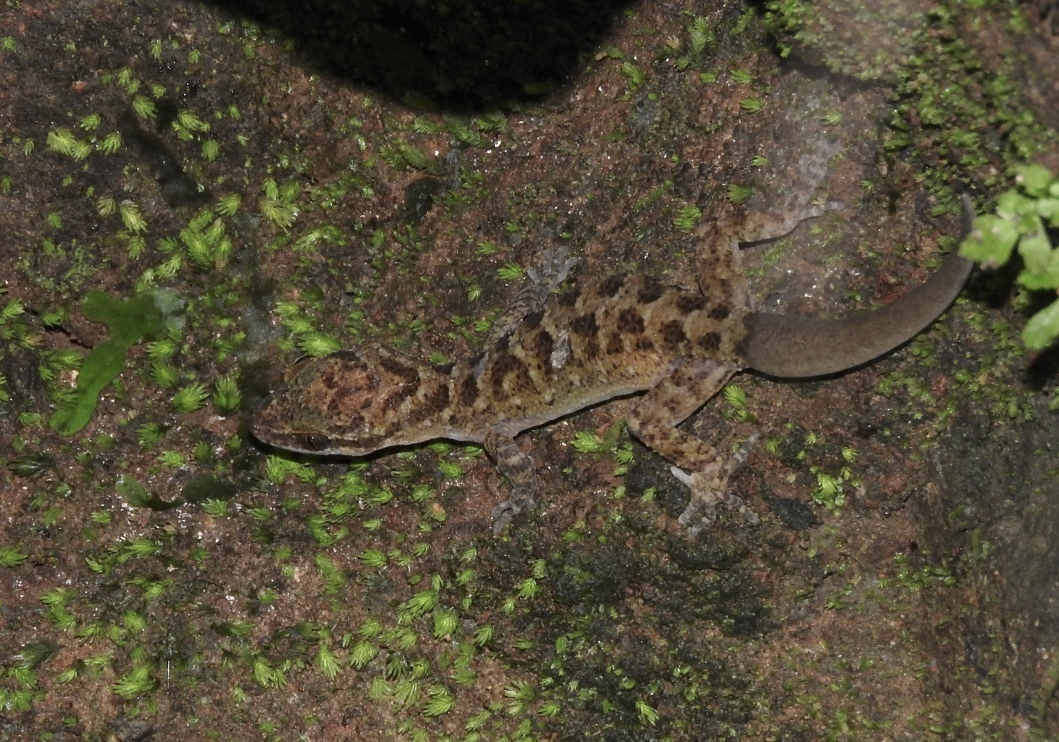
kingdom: Animalia
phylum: Chordata
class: Squamata
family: Gekkonidae
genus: Cyrtodactylus
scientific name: Cyrtodactylus marmoratus
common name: Marbled bow-fingered gecko
